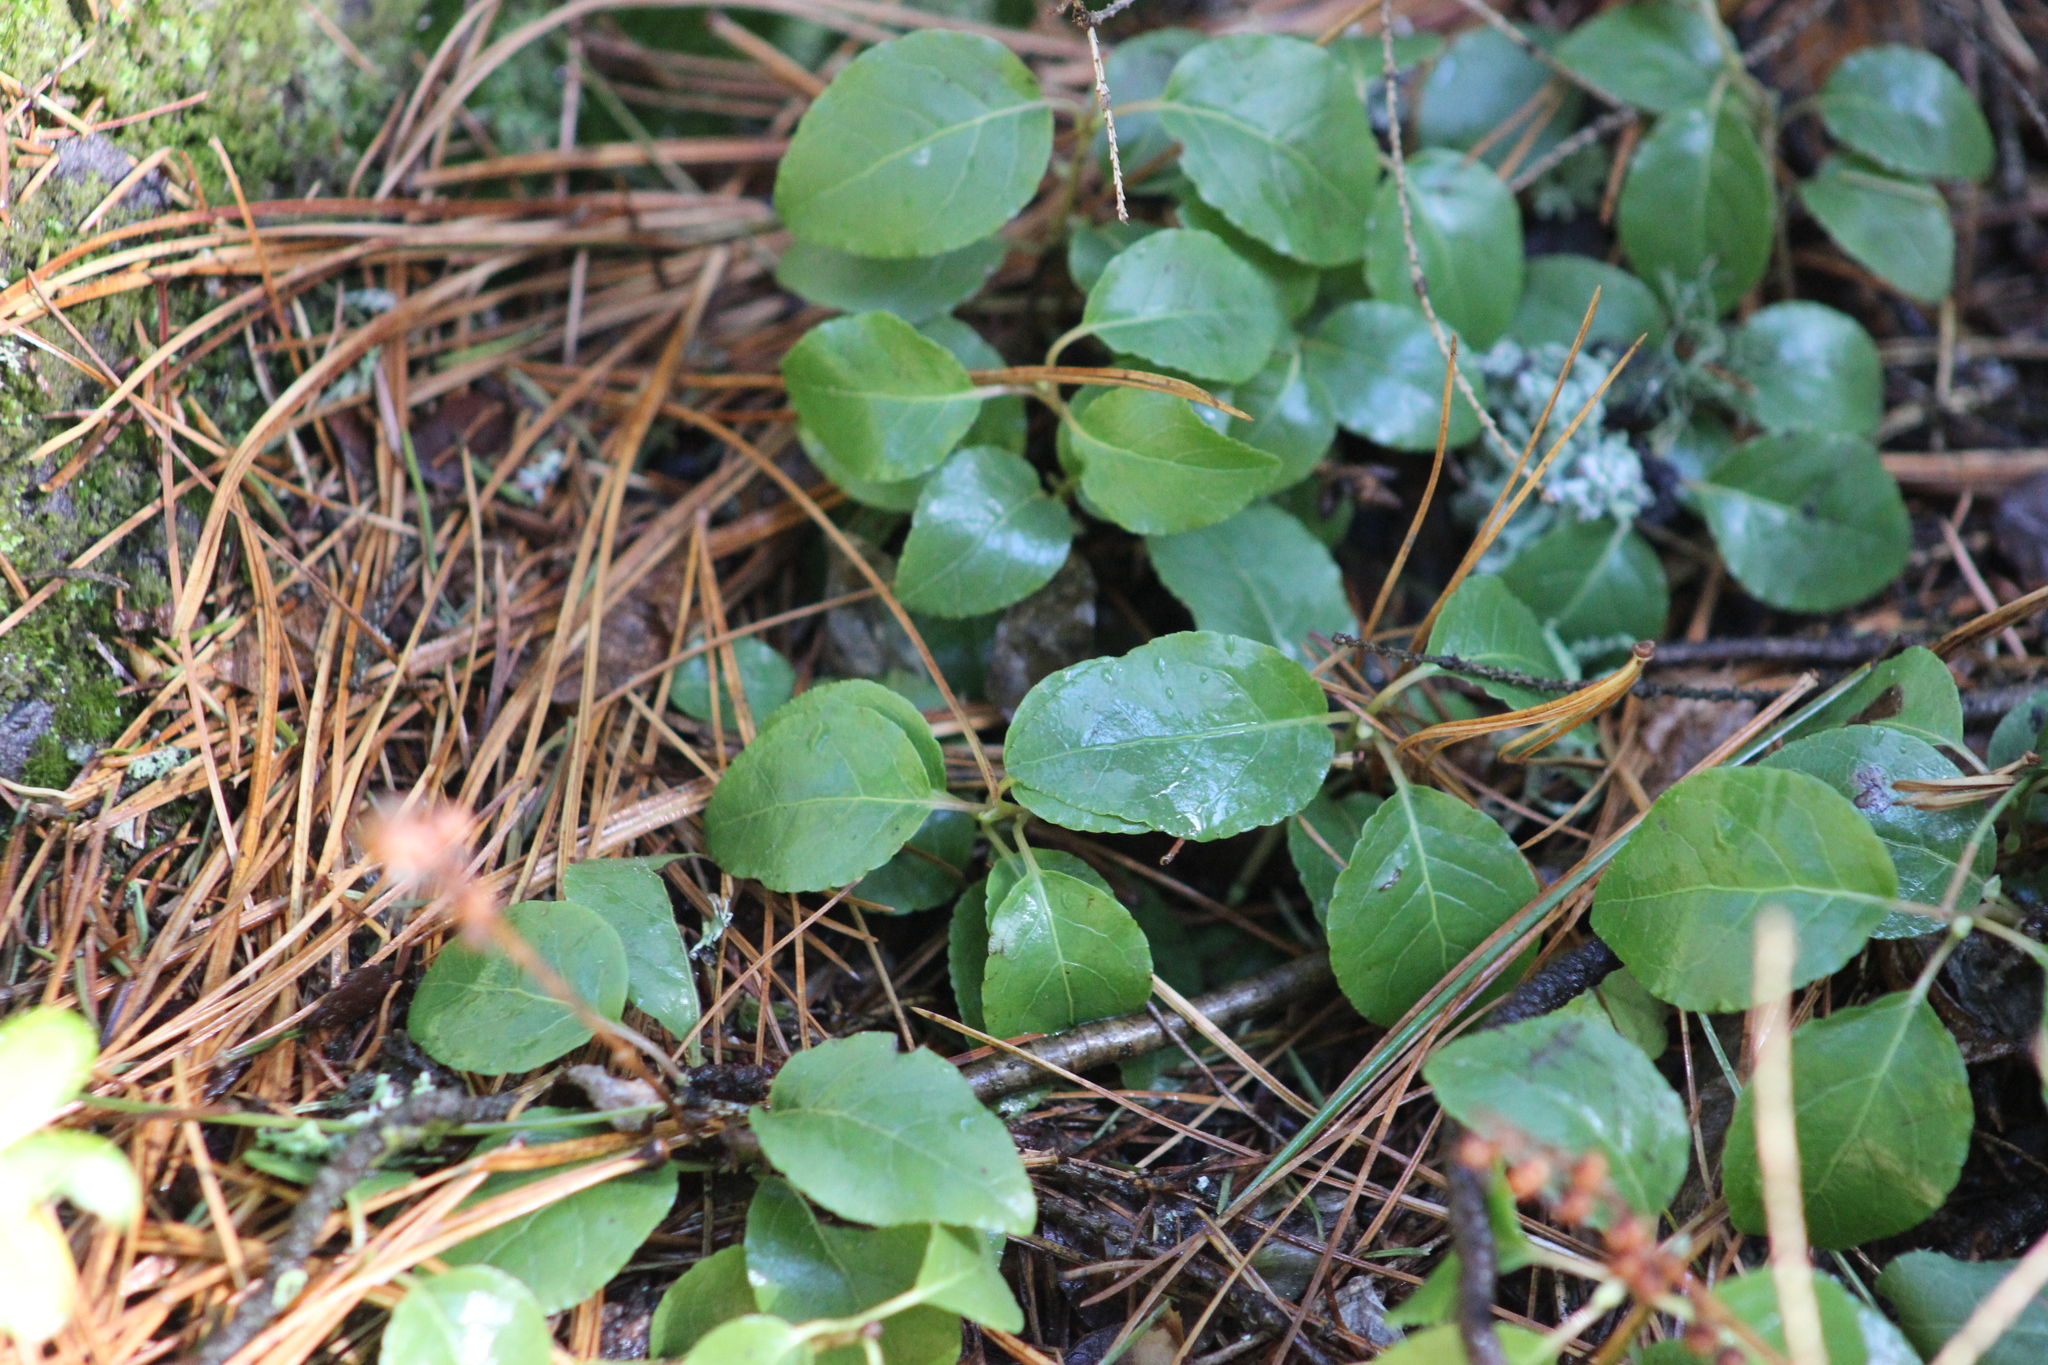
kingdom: Plantae
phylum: Tracheophyta
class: Magnoliopsida
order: Ericales
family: Ericaceae
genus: Orthilia
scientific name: Orthilia secunda
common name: One-sided orthilia
